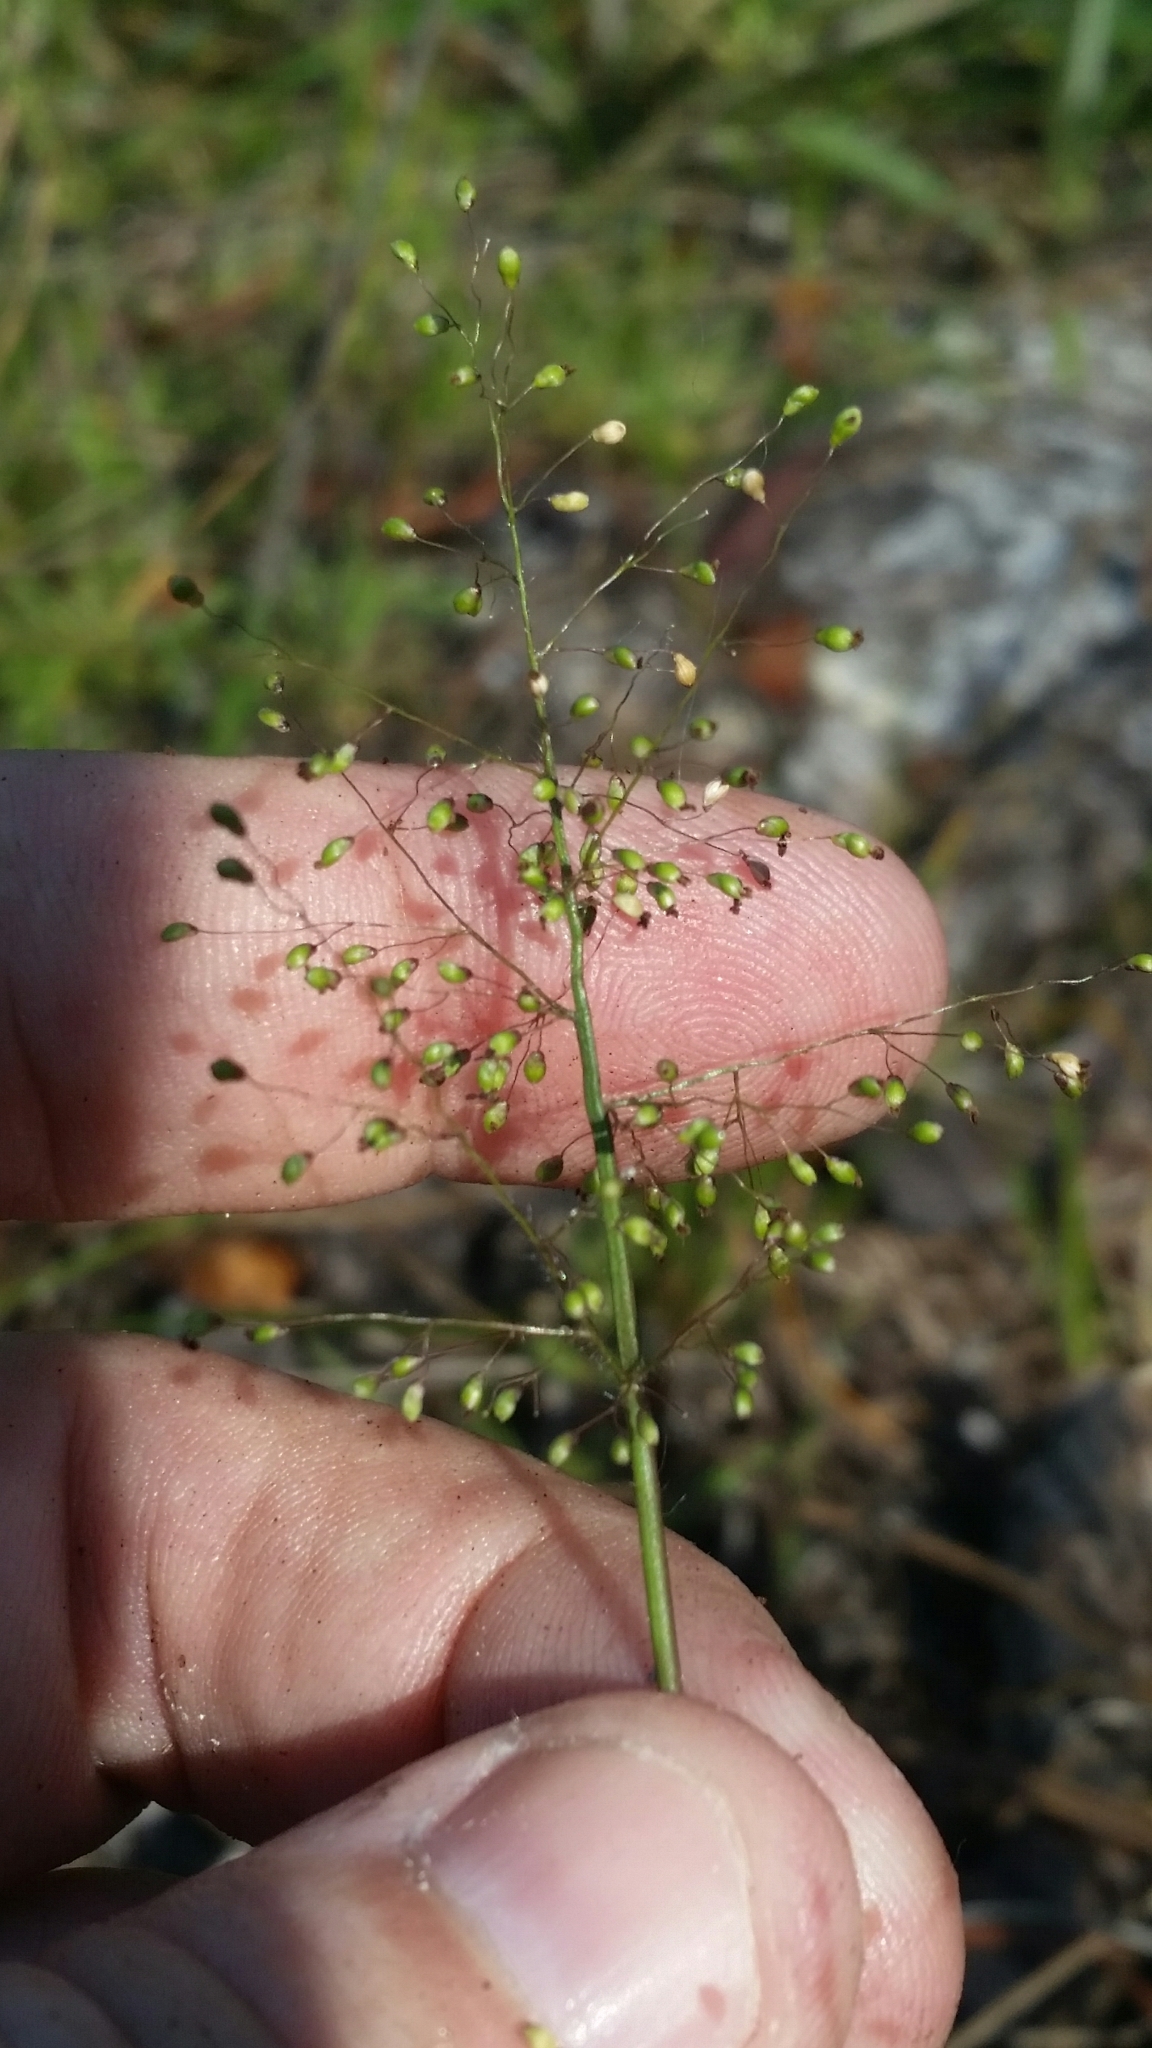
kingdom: Plantae
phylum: Tracheophyta
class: Liliopsida
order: Poales
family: Poaceae
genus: Dichanthelium
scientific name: Dichanthelium strigosum
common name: Cushion-tuft panic grass
